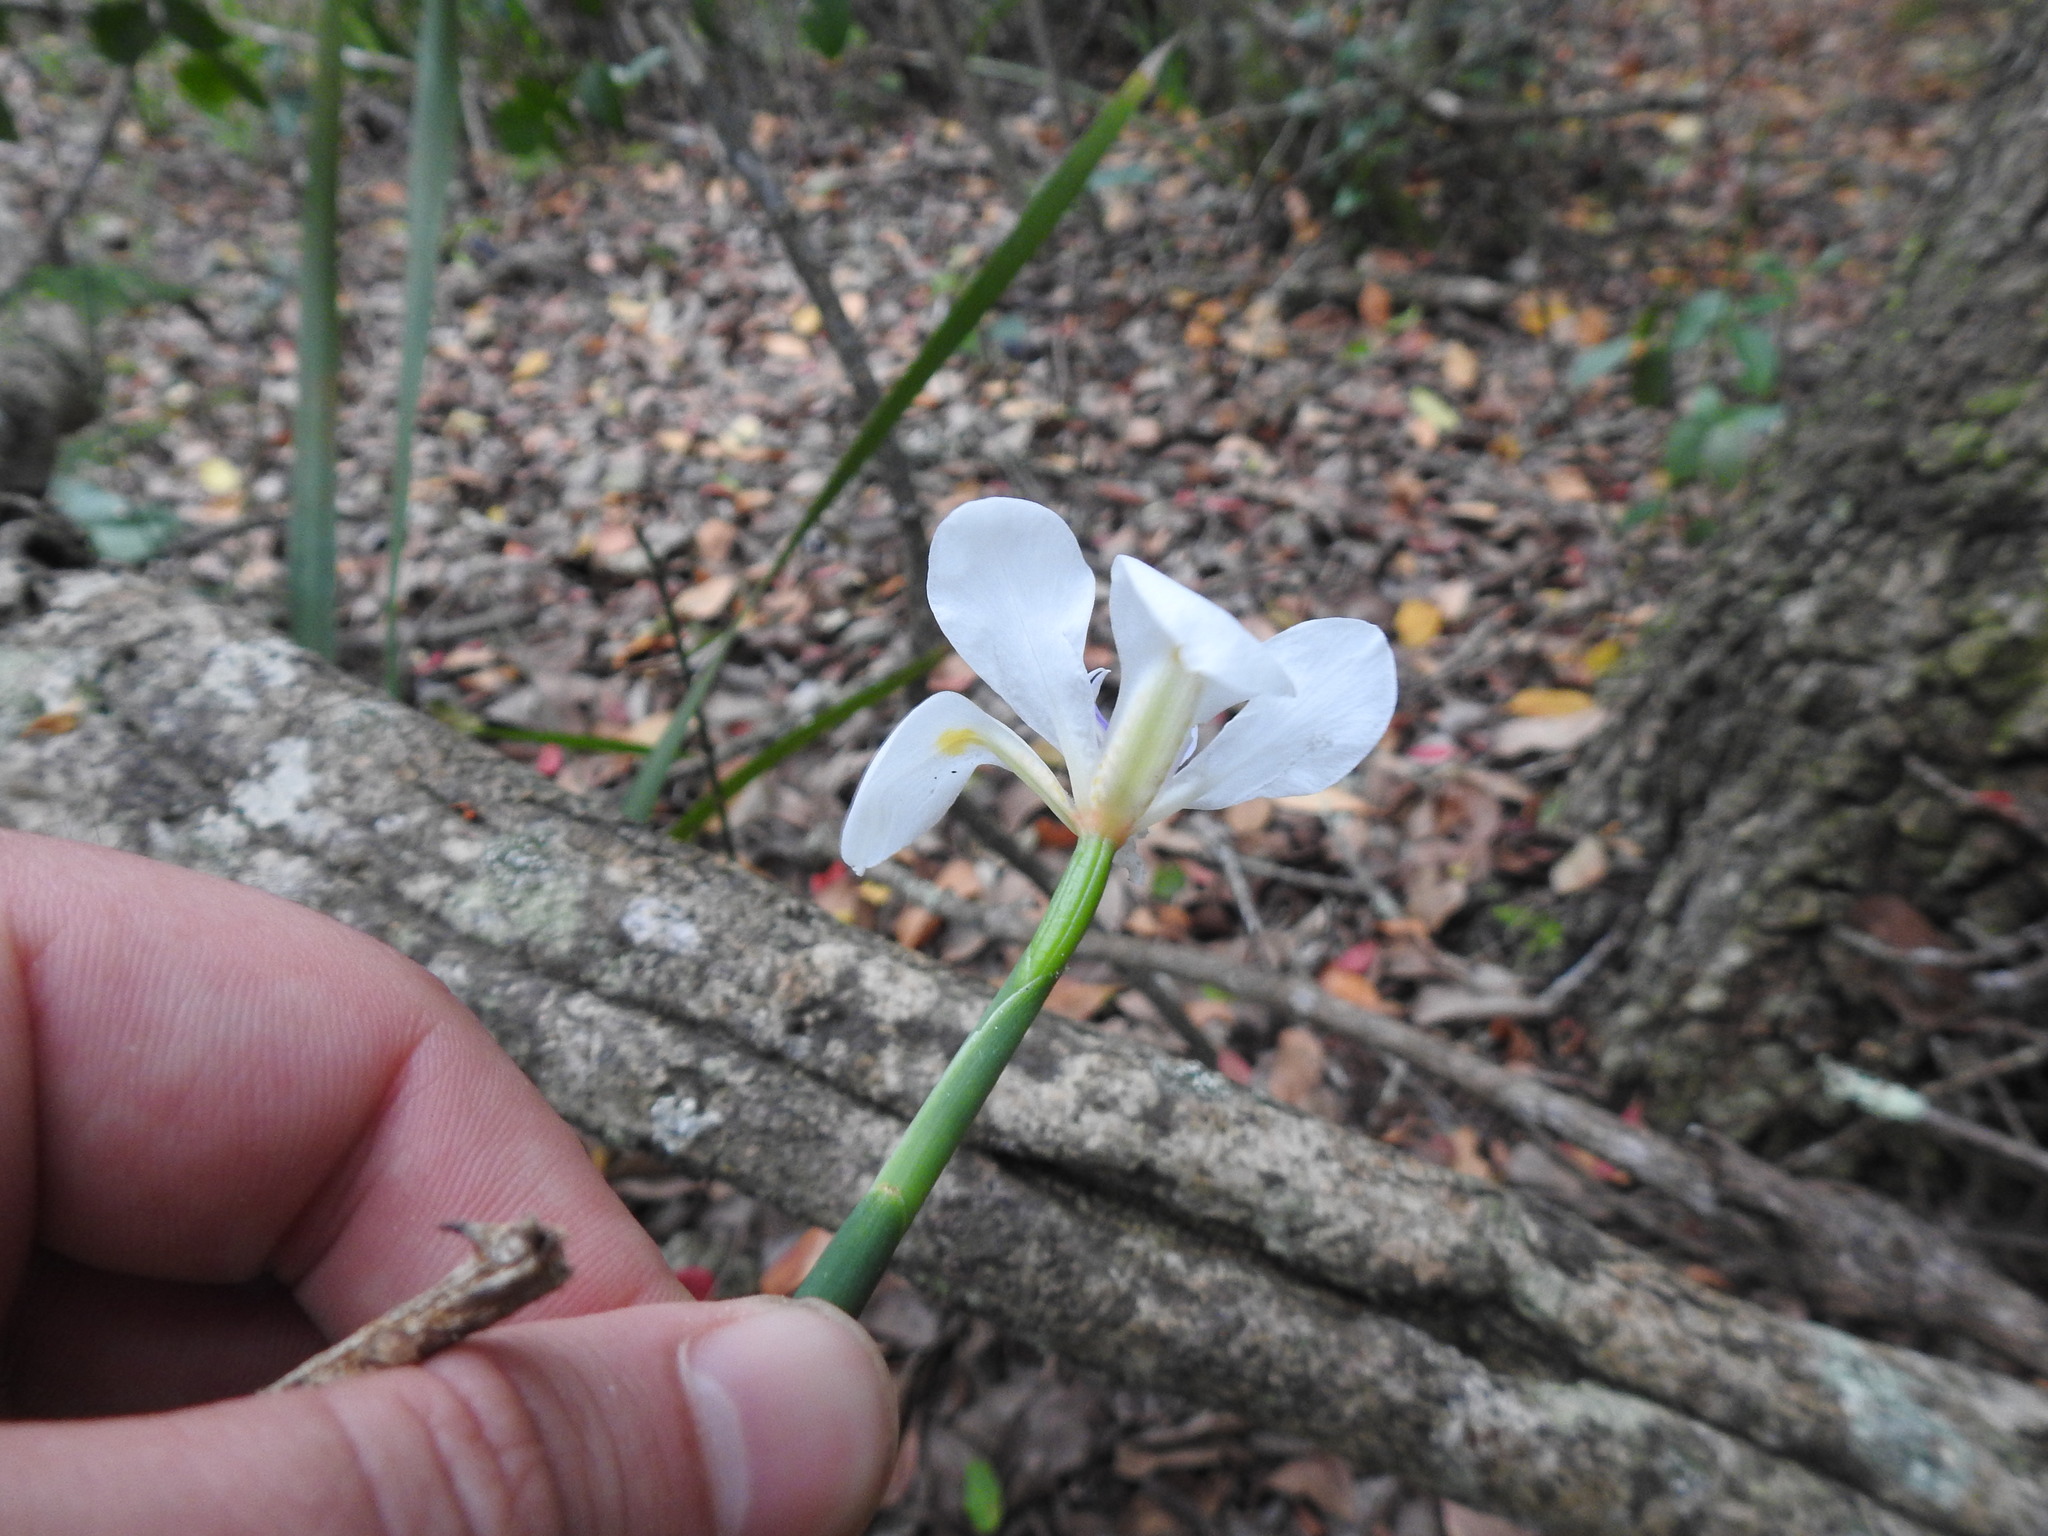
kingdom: Plantae
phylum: Tracheophyta
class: Liliopsida
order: Asparagales
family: Iridaceae
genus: Dietes
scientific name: Dietes iridioides
